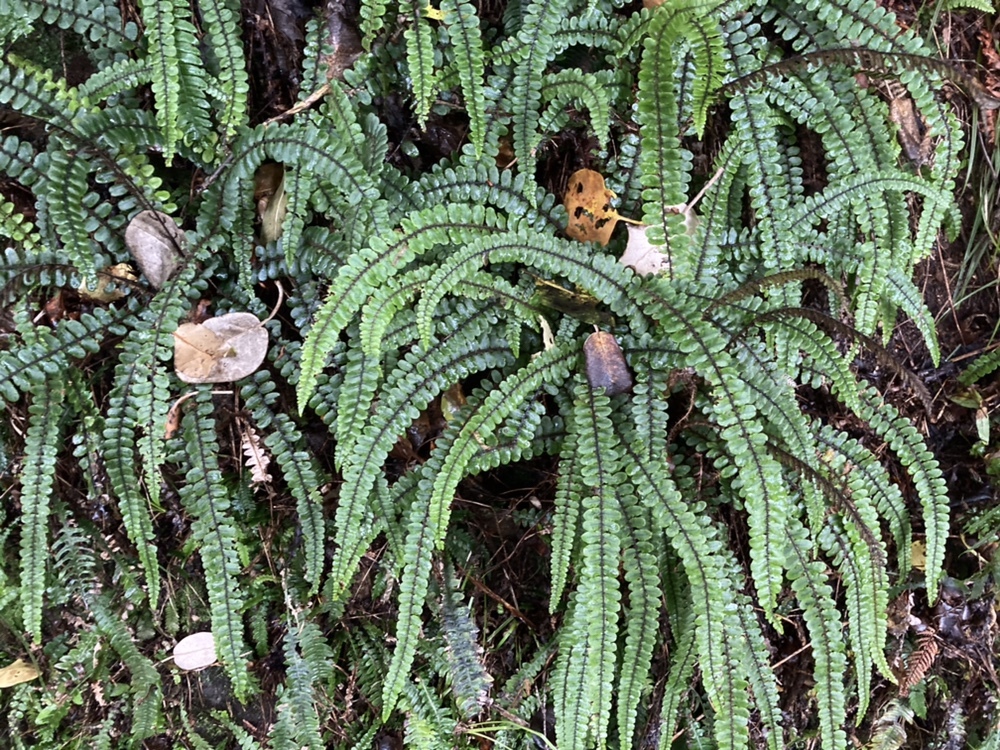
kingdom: Plantae
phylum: Tracheophyta
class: Polypodiopsida
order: Polypodiales
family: Blechnaceae
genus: Cranfillia
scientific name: Cranfillia fluviatilis
